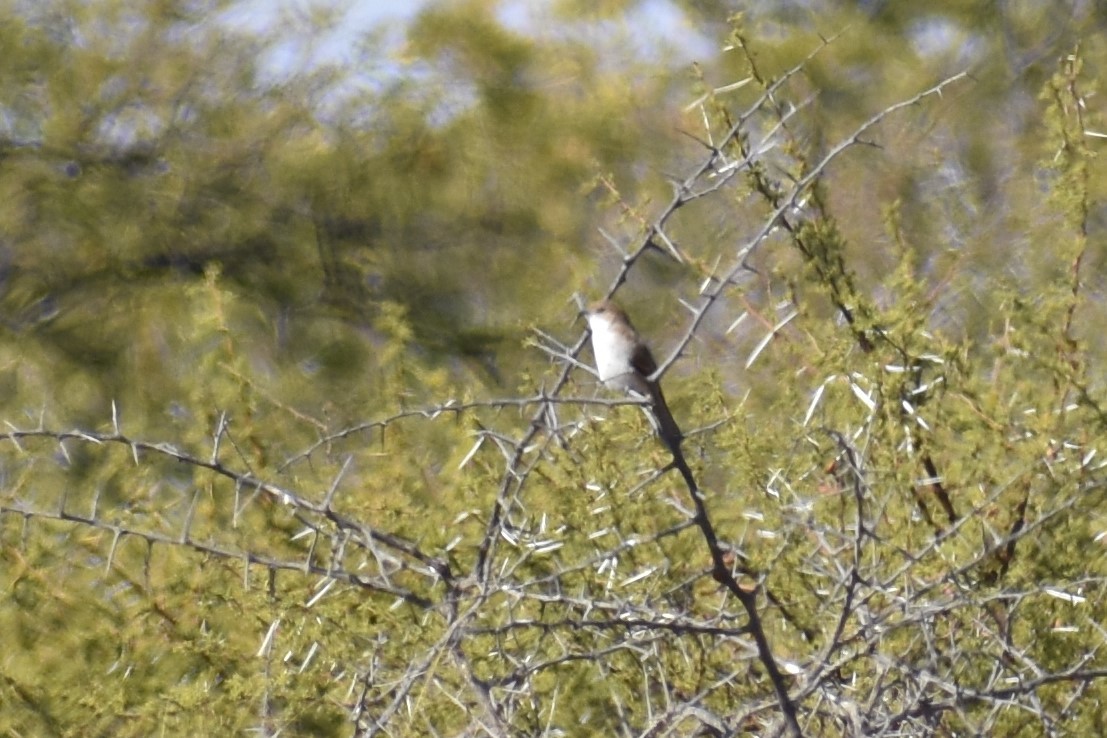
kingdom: Animalia
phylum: Chordata
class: Aves
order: Passeriformes
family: Muscicapidae
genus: Bradornis
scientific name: Bradornis mariquensis
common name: Marico flycatcher
